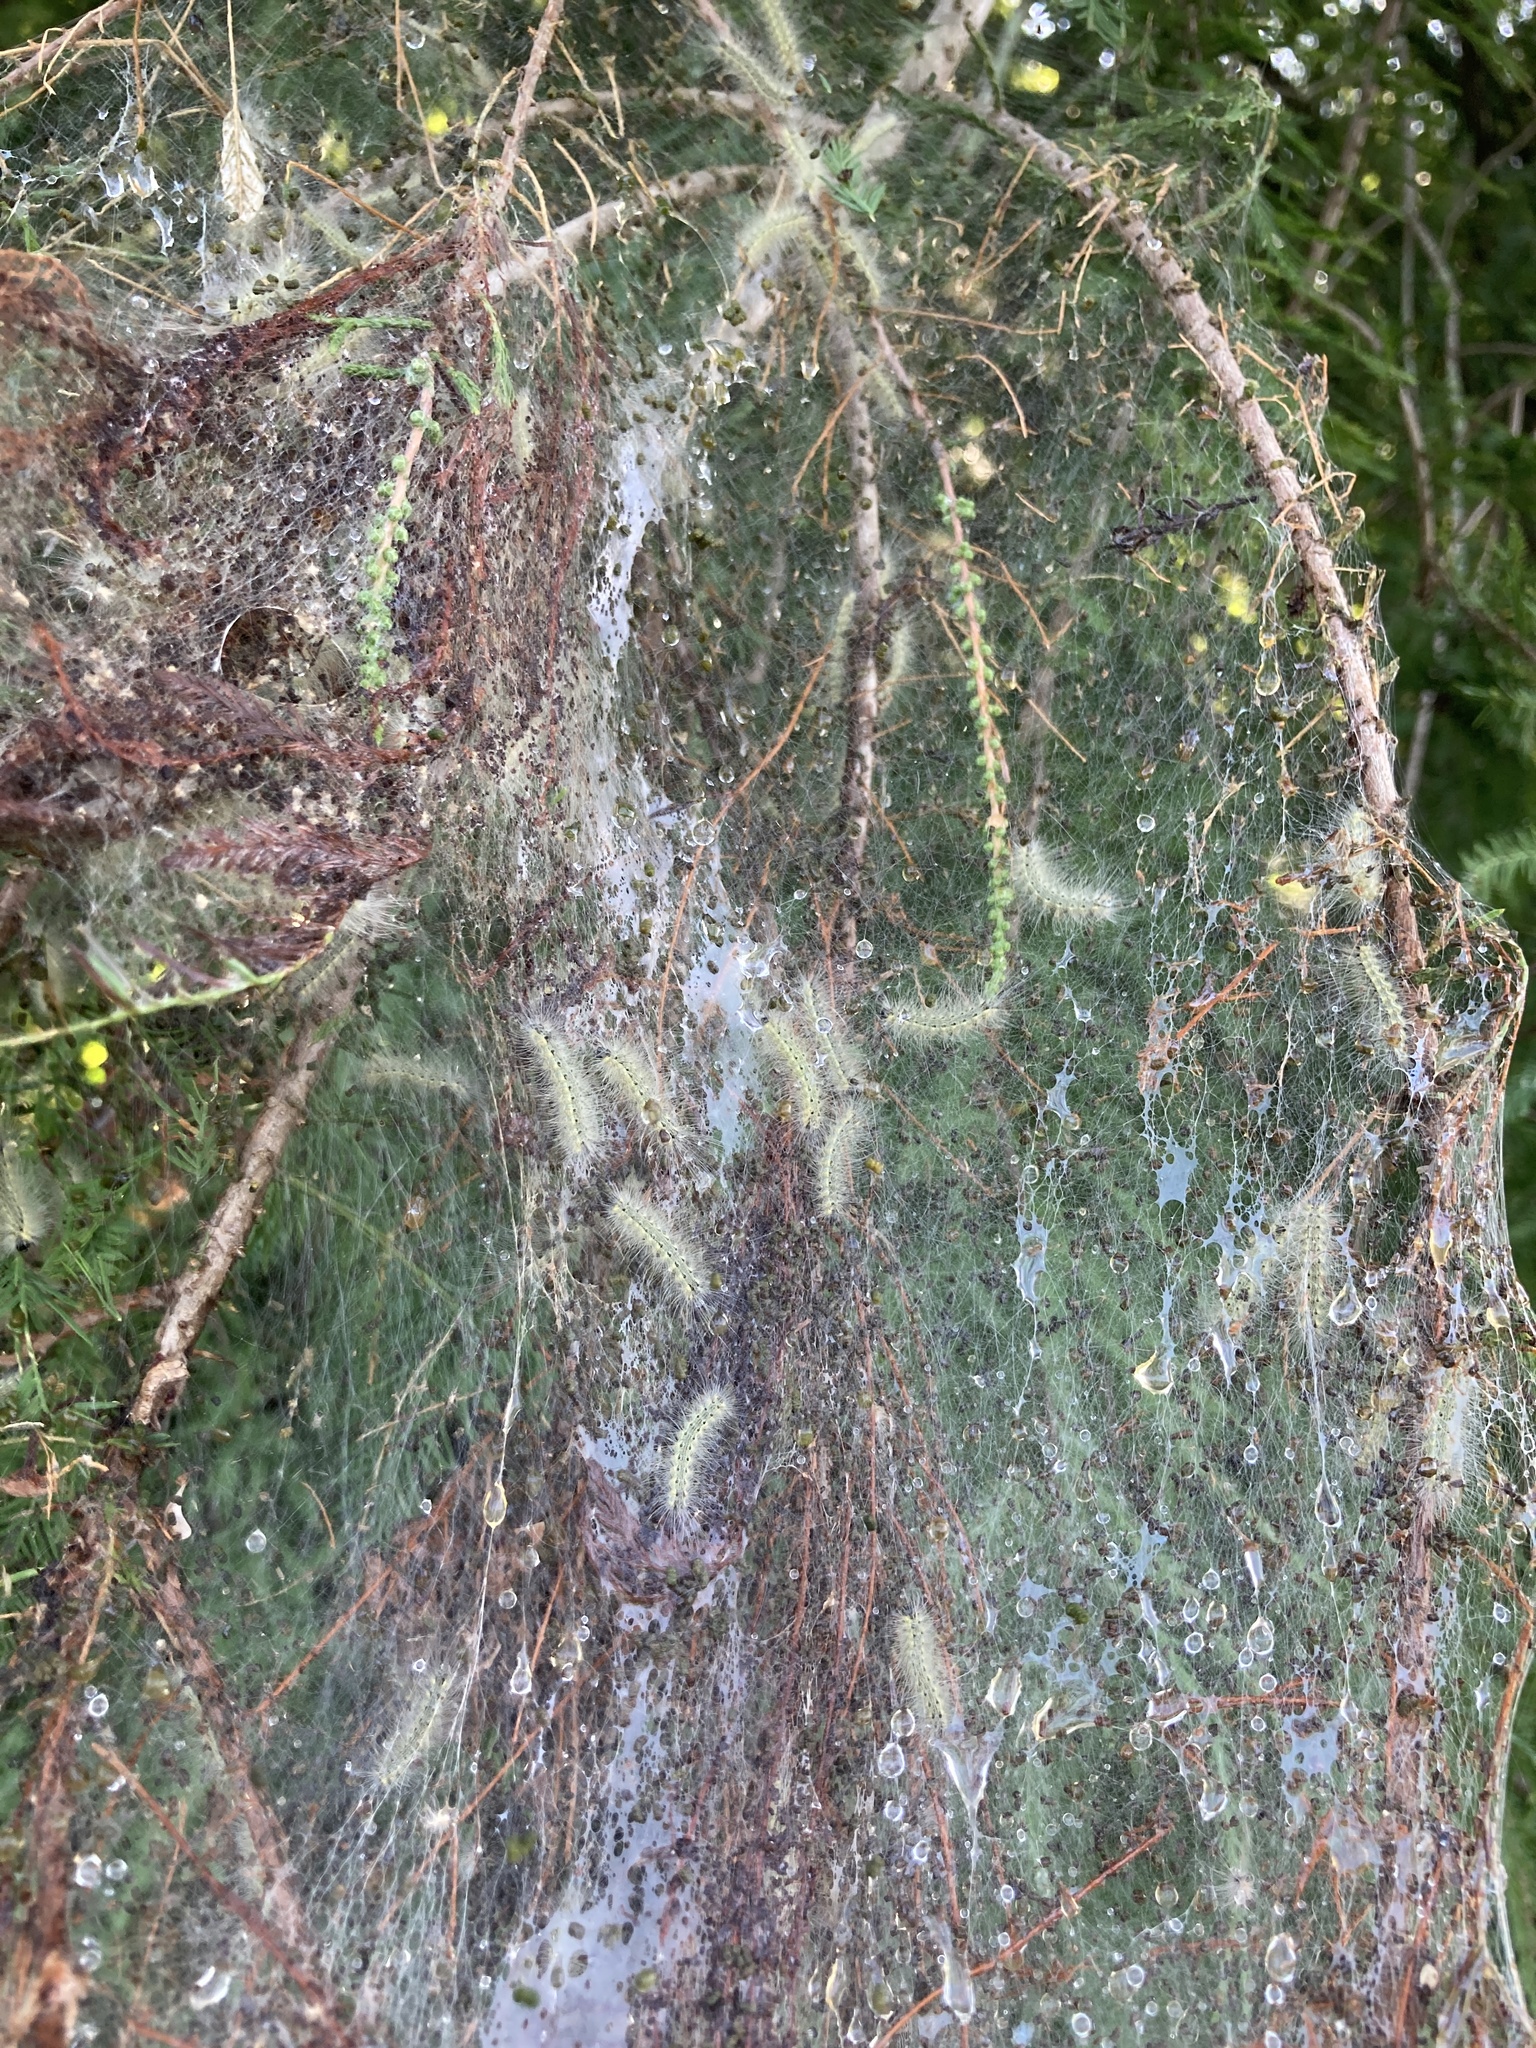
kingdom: Animalia
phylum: Arthropoda
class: Insecta
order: Lepidoptera
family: Erebidae
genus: Hyphantria
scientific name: Hyphantria cunea
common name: American white moth
